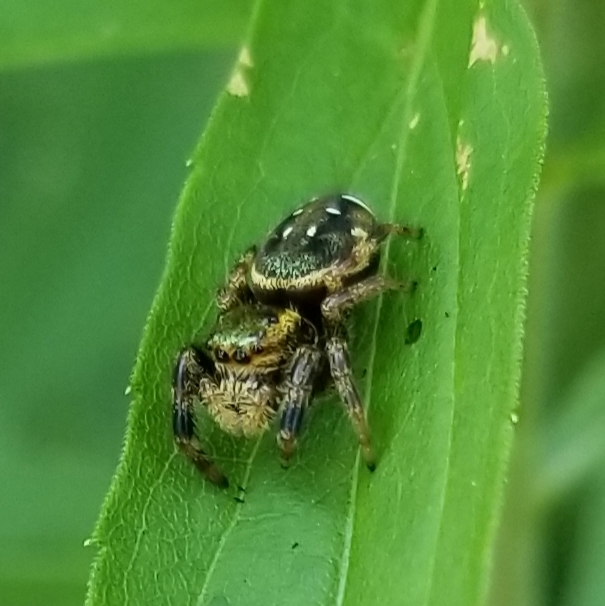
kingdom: Animalia
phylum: Arthropoda
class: Arachnida
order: Araneae
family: Salticidae
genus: Paraphidippus
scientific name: Paraphidippus aurantius
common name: Jumping spiders
